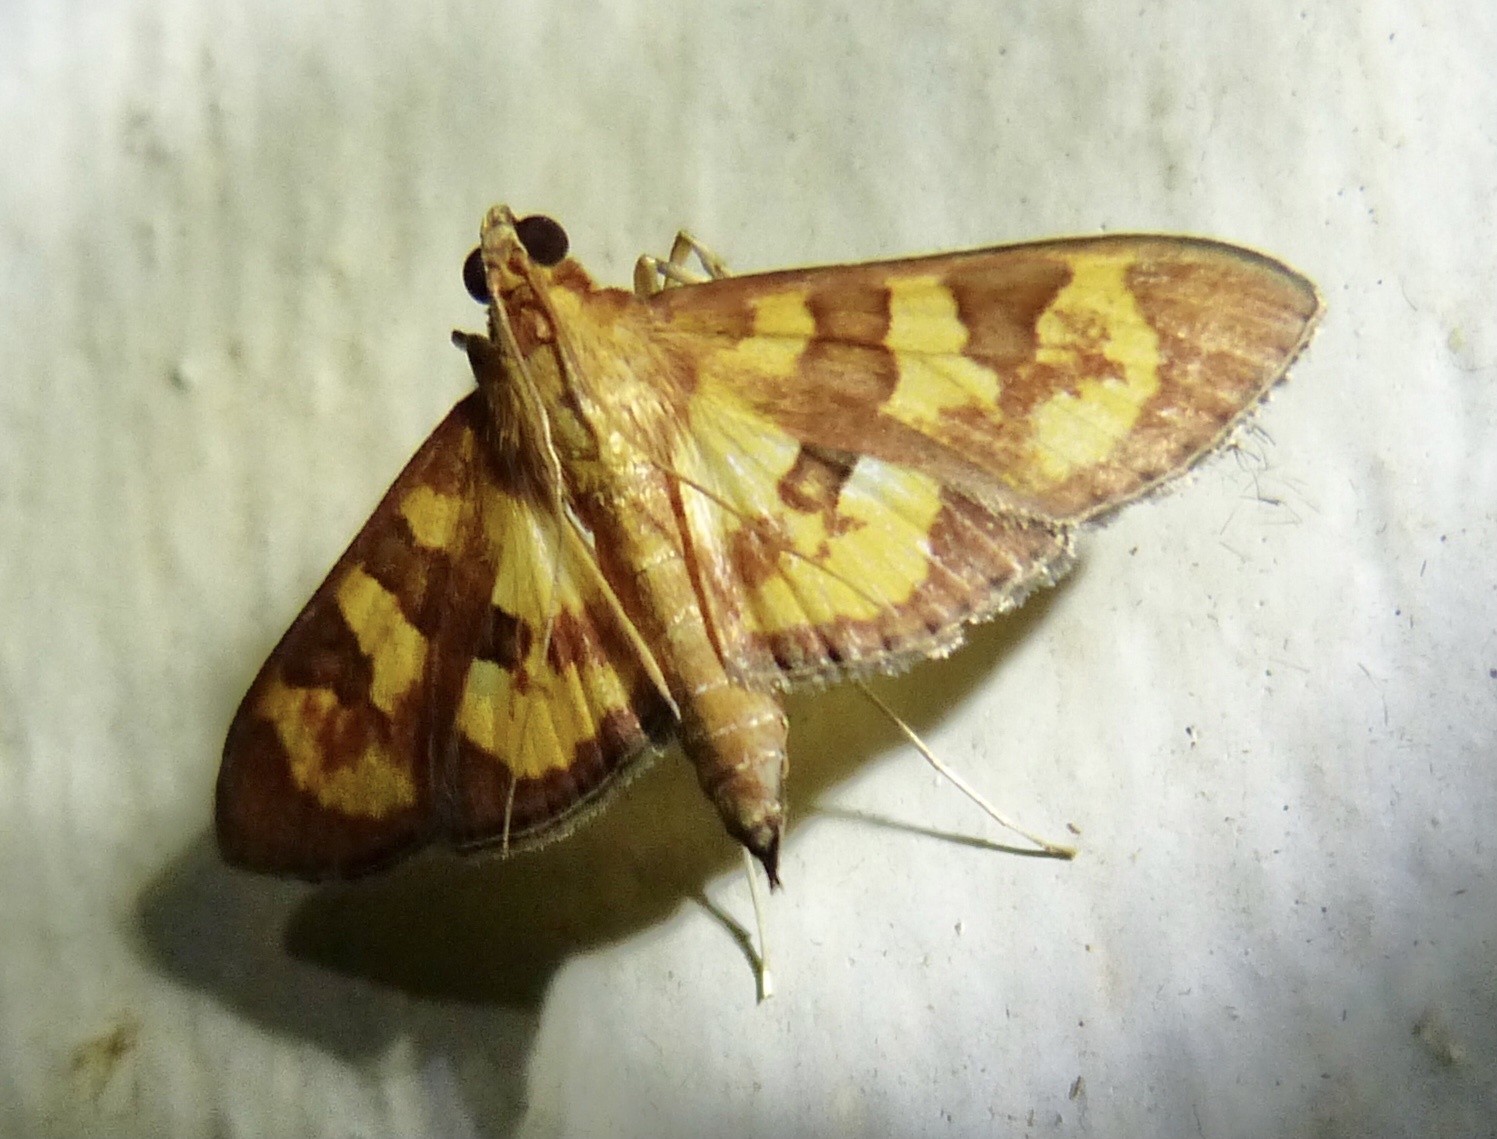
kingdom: Animalia
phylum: Arthropoda
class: Insecta
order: Lepidoptera
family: Crambidae
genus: Trithyris
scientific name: Trithyris
